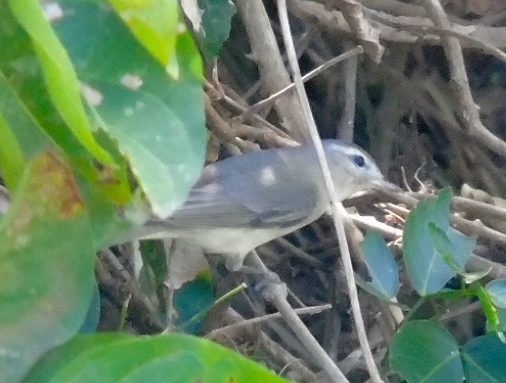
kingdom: Animalia
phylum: Chordata
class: Aves
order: Passeriformes
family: Vireonidae
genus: Vireo
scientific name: Vireo gilvus
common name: Warbling vireo
